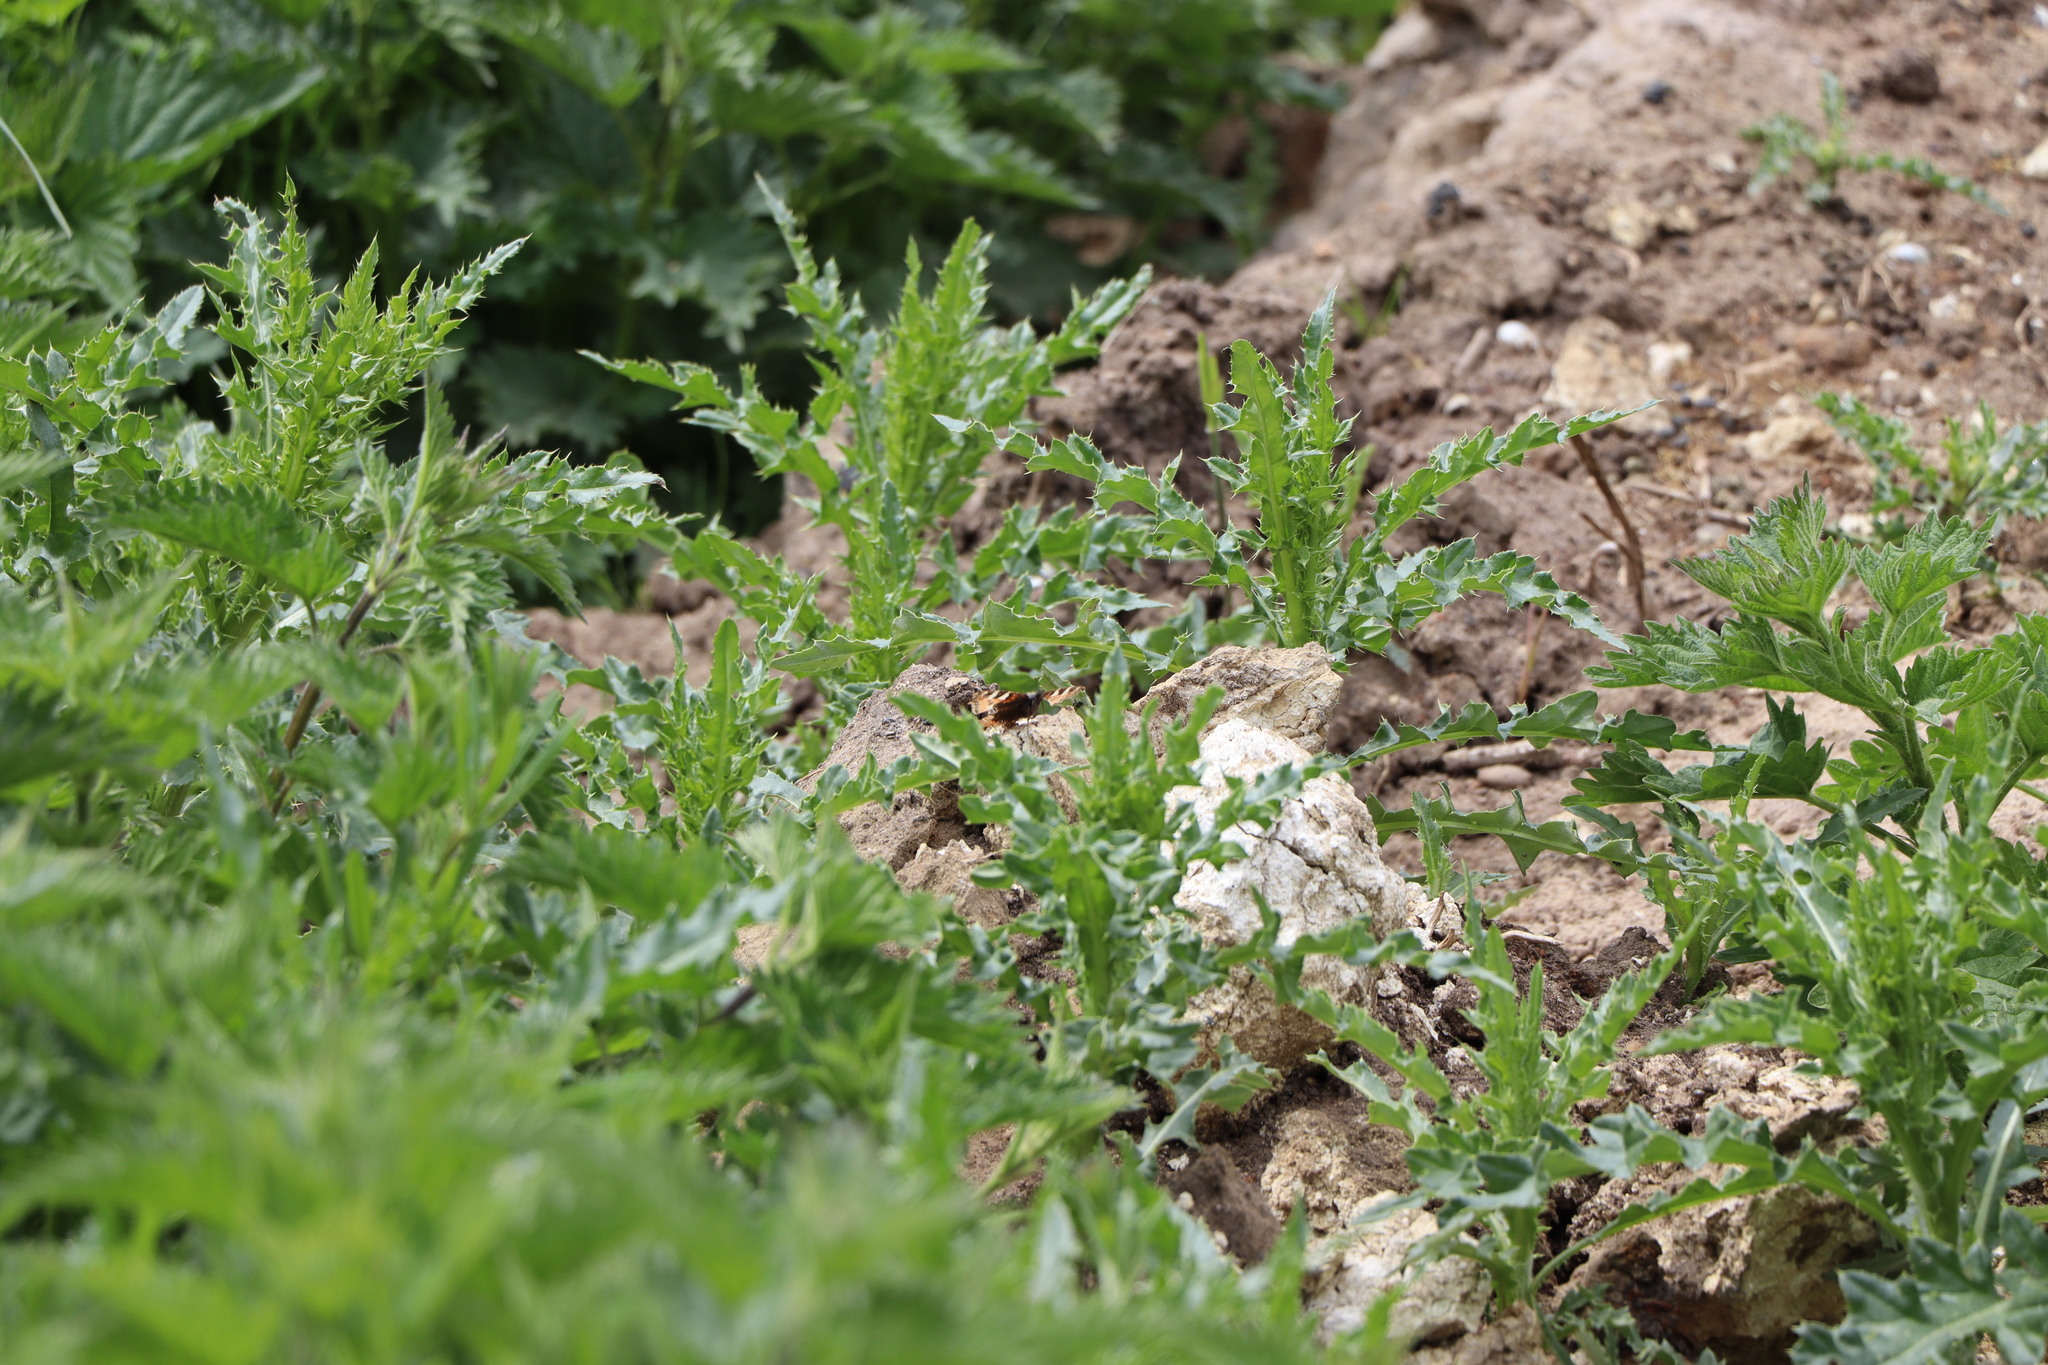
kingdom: Animalia
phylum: Arthropoda
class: Insecta
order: Lepidoptera
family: Nymphalidae
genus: Aglais
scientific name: Aglais urticae
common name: Small tortoiseshell
